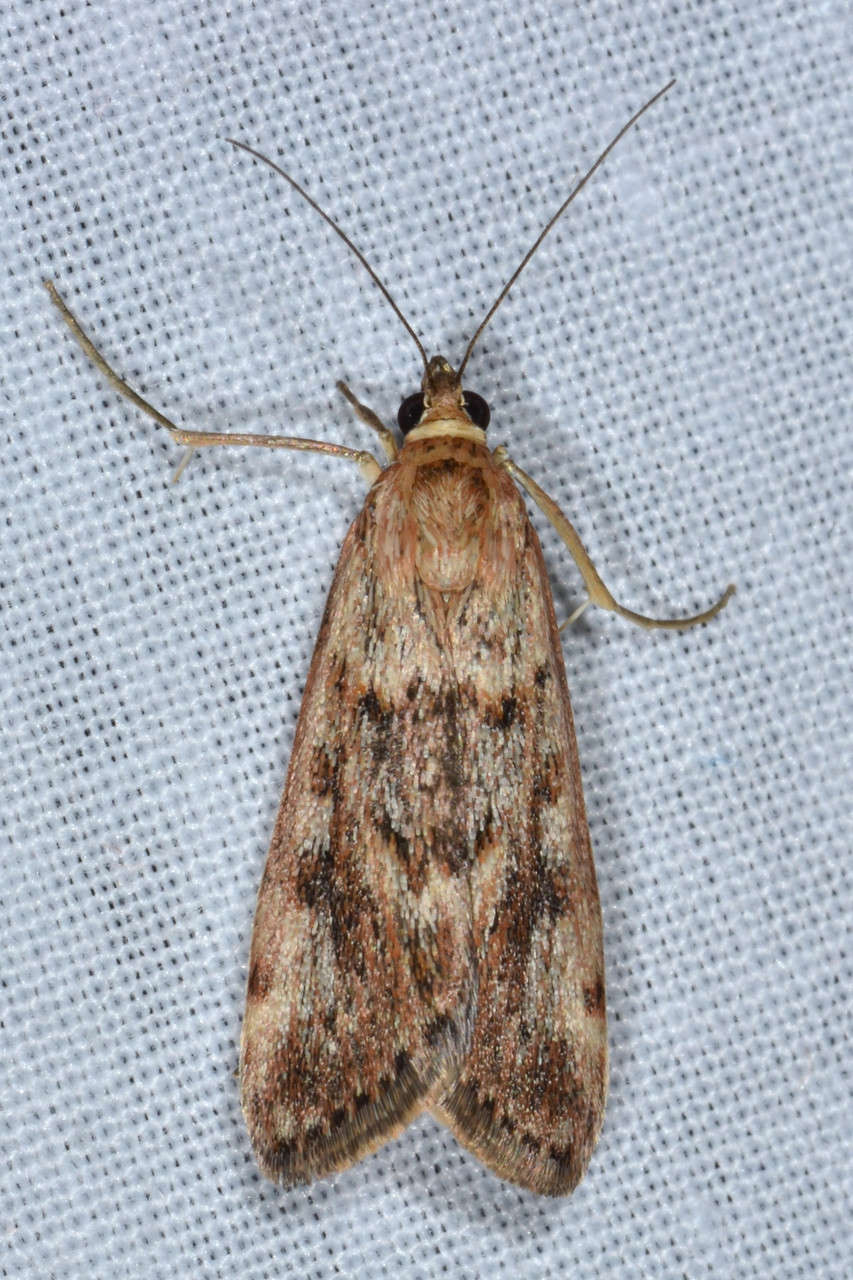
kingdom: Animalia
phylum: Arthropoda
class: Insecta
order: Lepidoptera
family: Crambidae
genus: Achyra
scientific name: Achyra affinitalis
